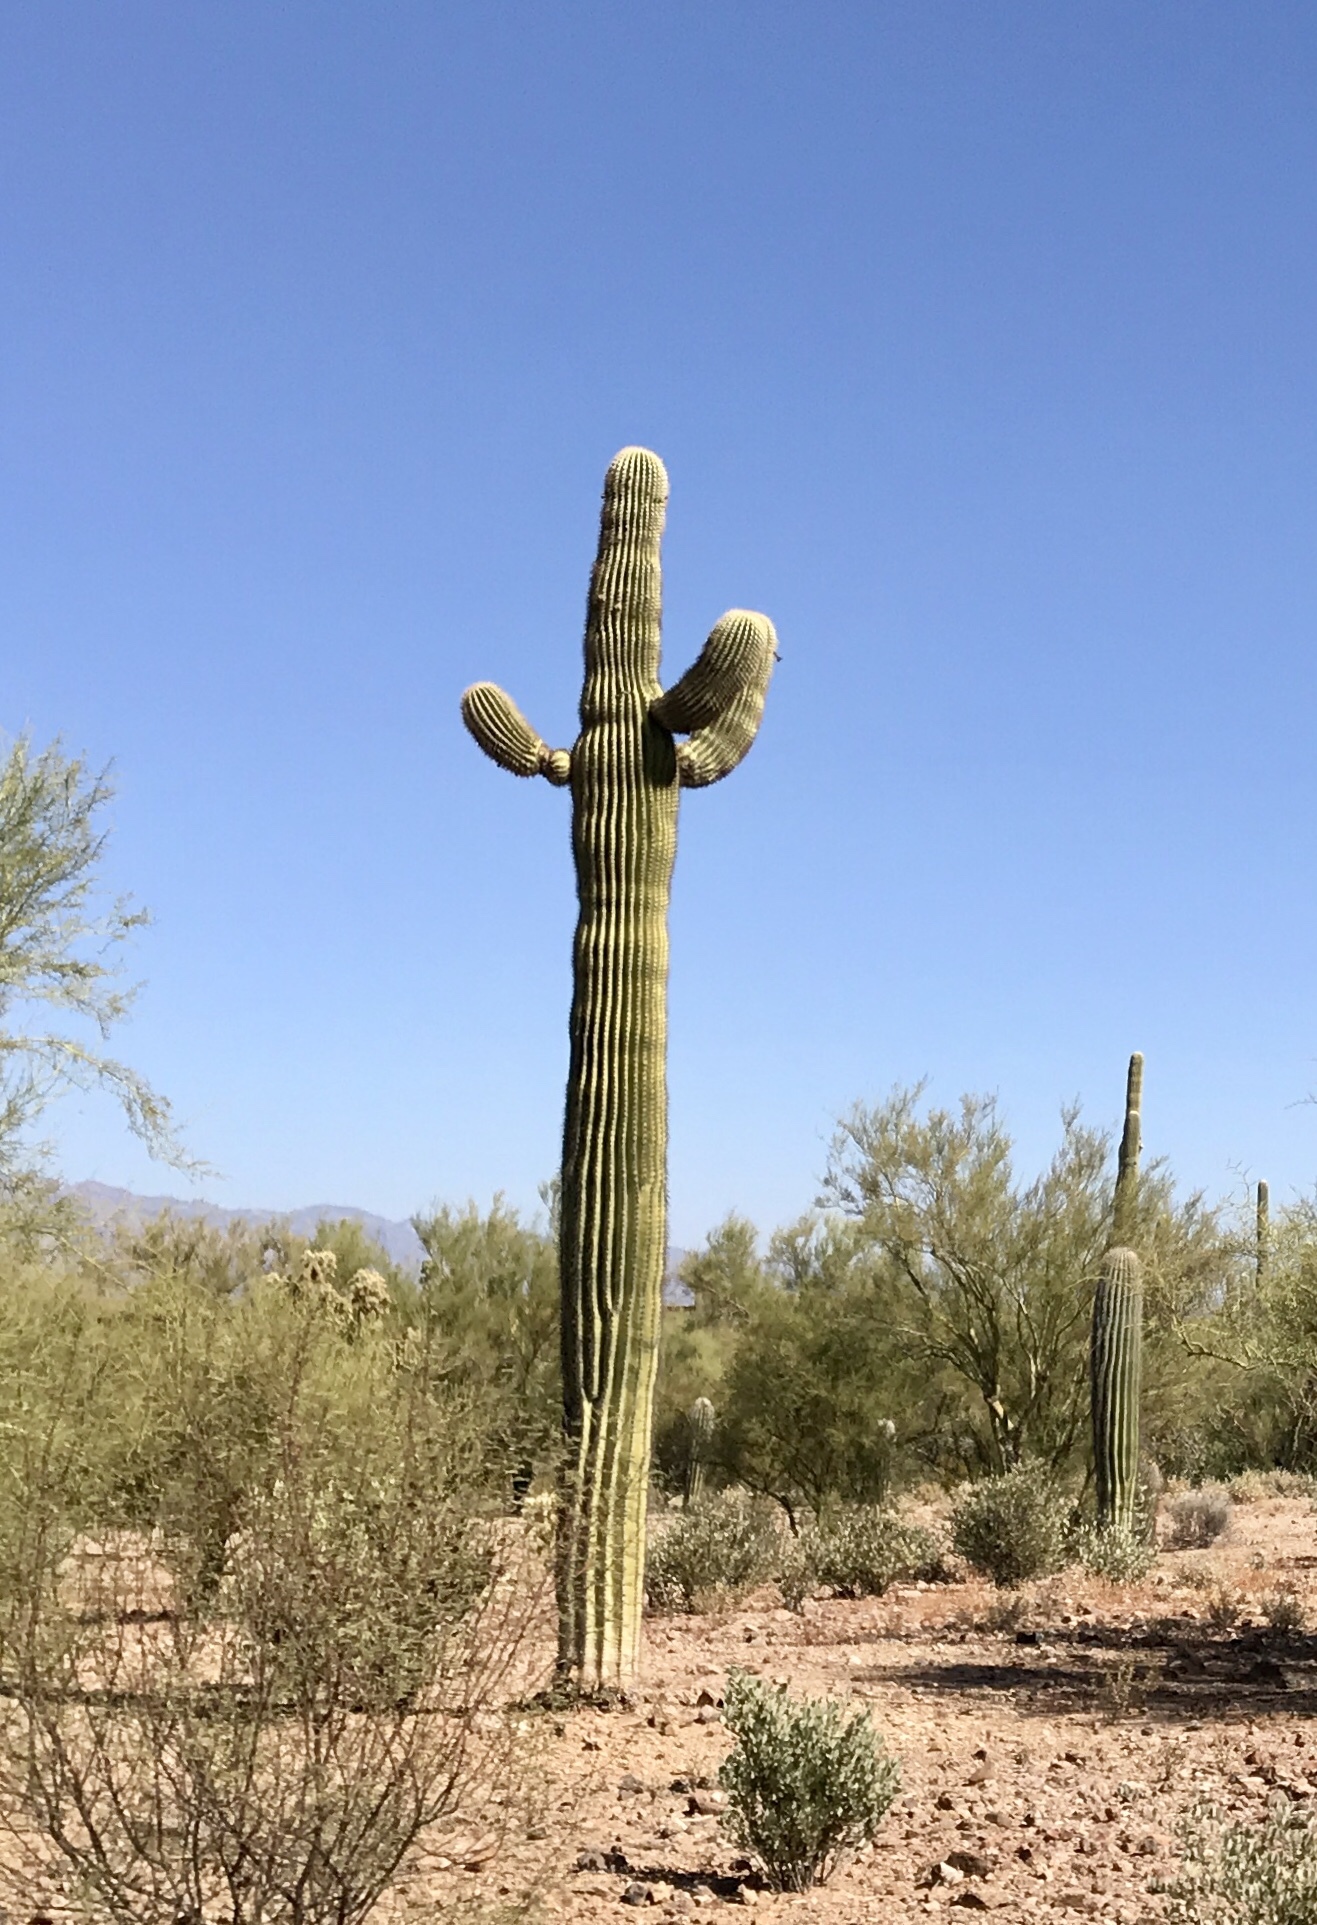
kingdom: Plantae
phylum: Tracheophyta
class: Magnoliopsida
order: Caryophyllales
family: Cactaceae
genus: Carnegiea
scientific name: Carnegiea gigantea
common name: Saguaro
